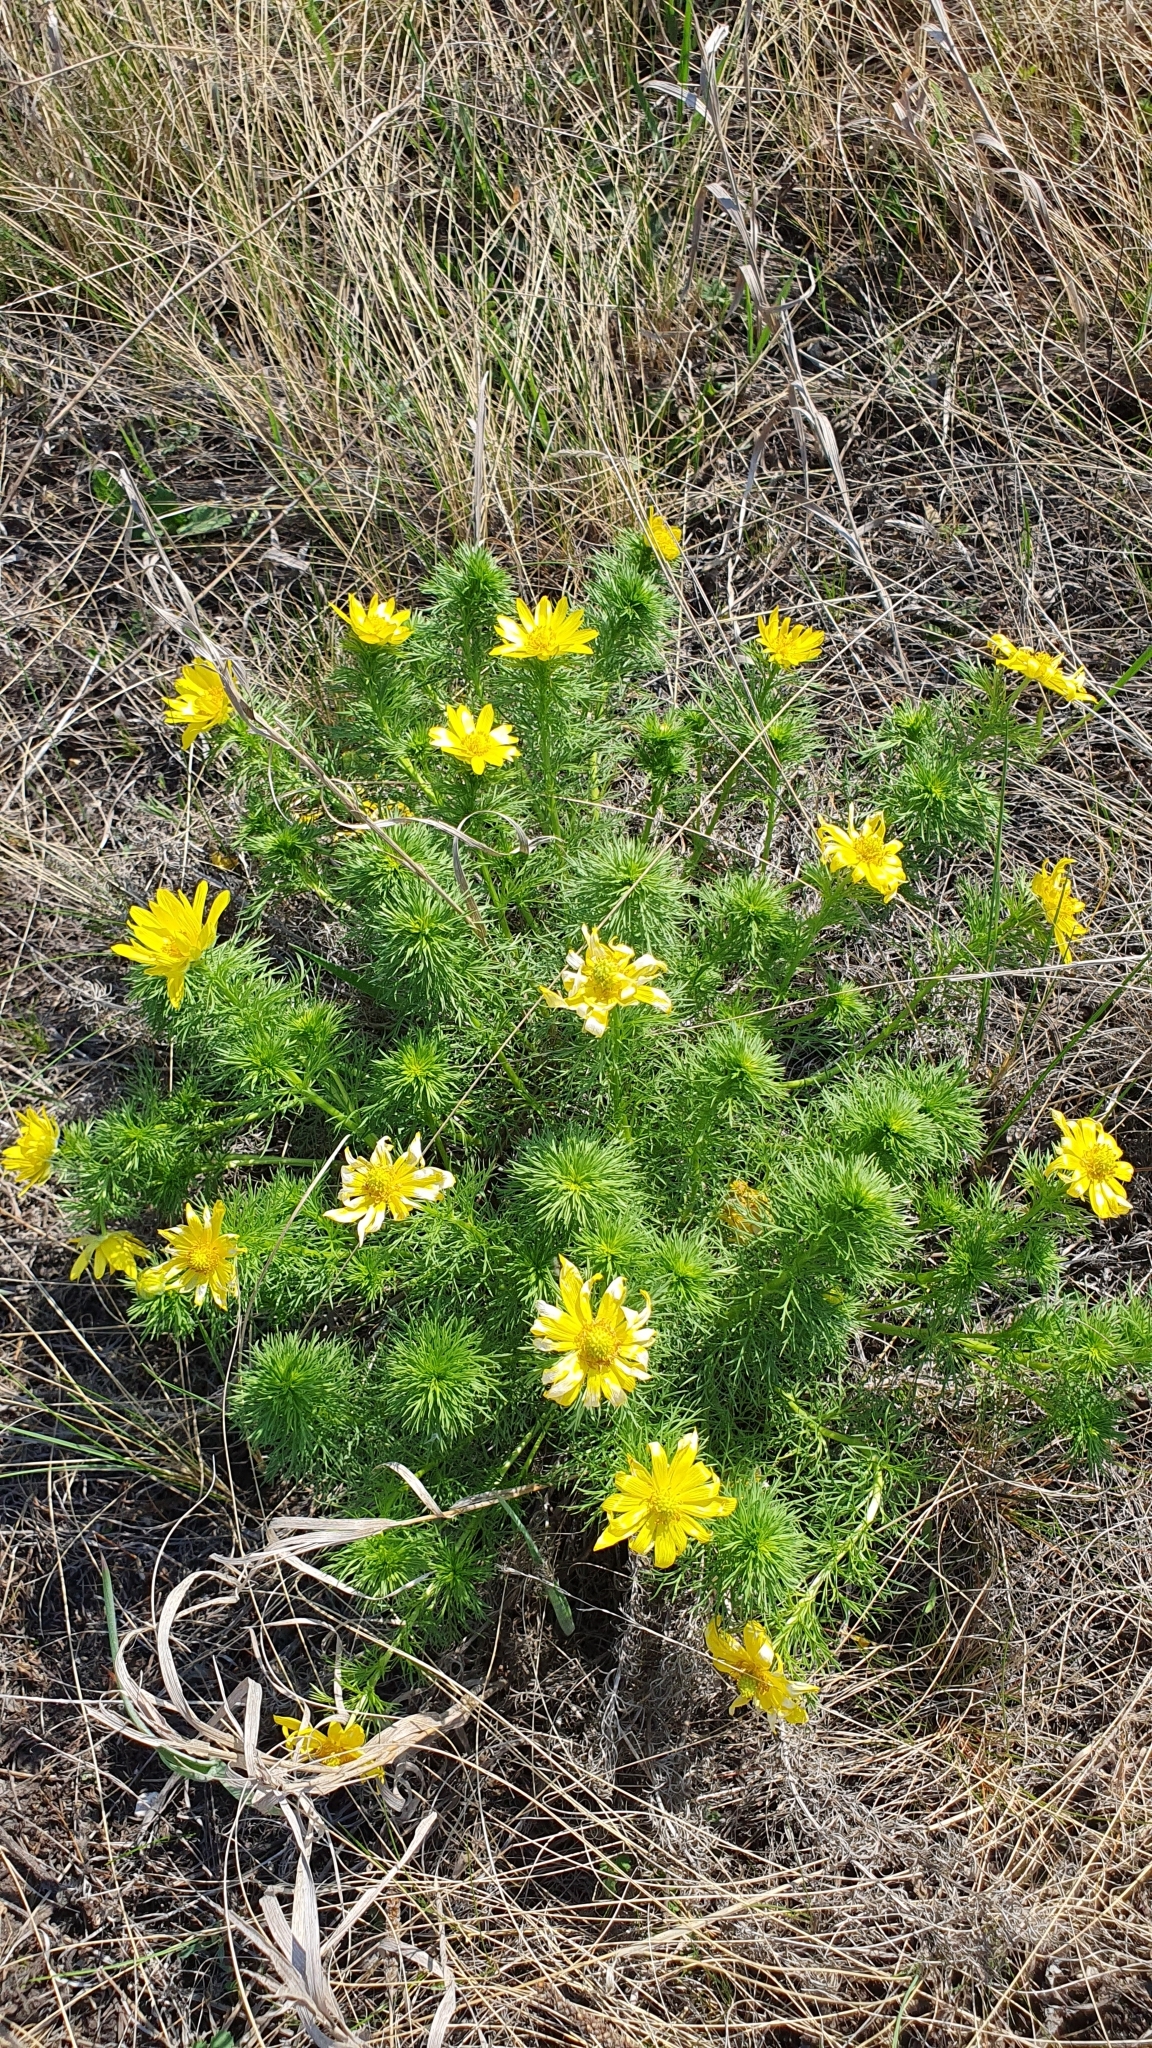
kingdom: Plantae
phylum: Tracheophyta
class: Magnoliopsida
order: Ranunculales
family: Ranunculaceae
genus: Adonis
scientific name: Adonis vernalis
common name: Yellow pheasants-eye
